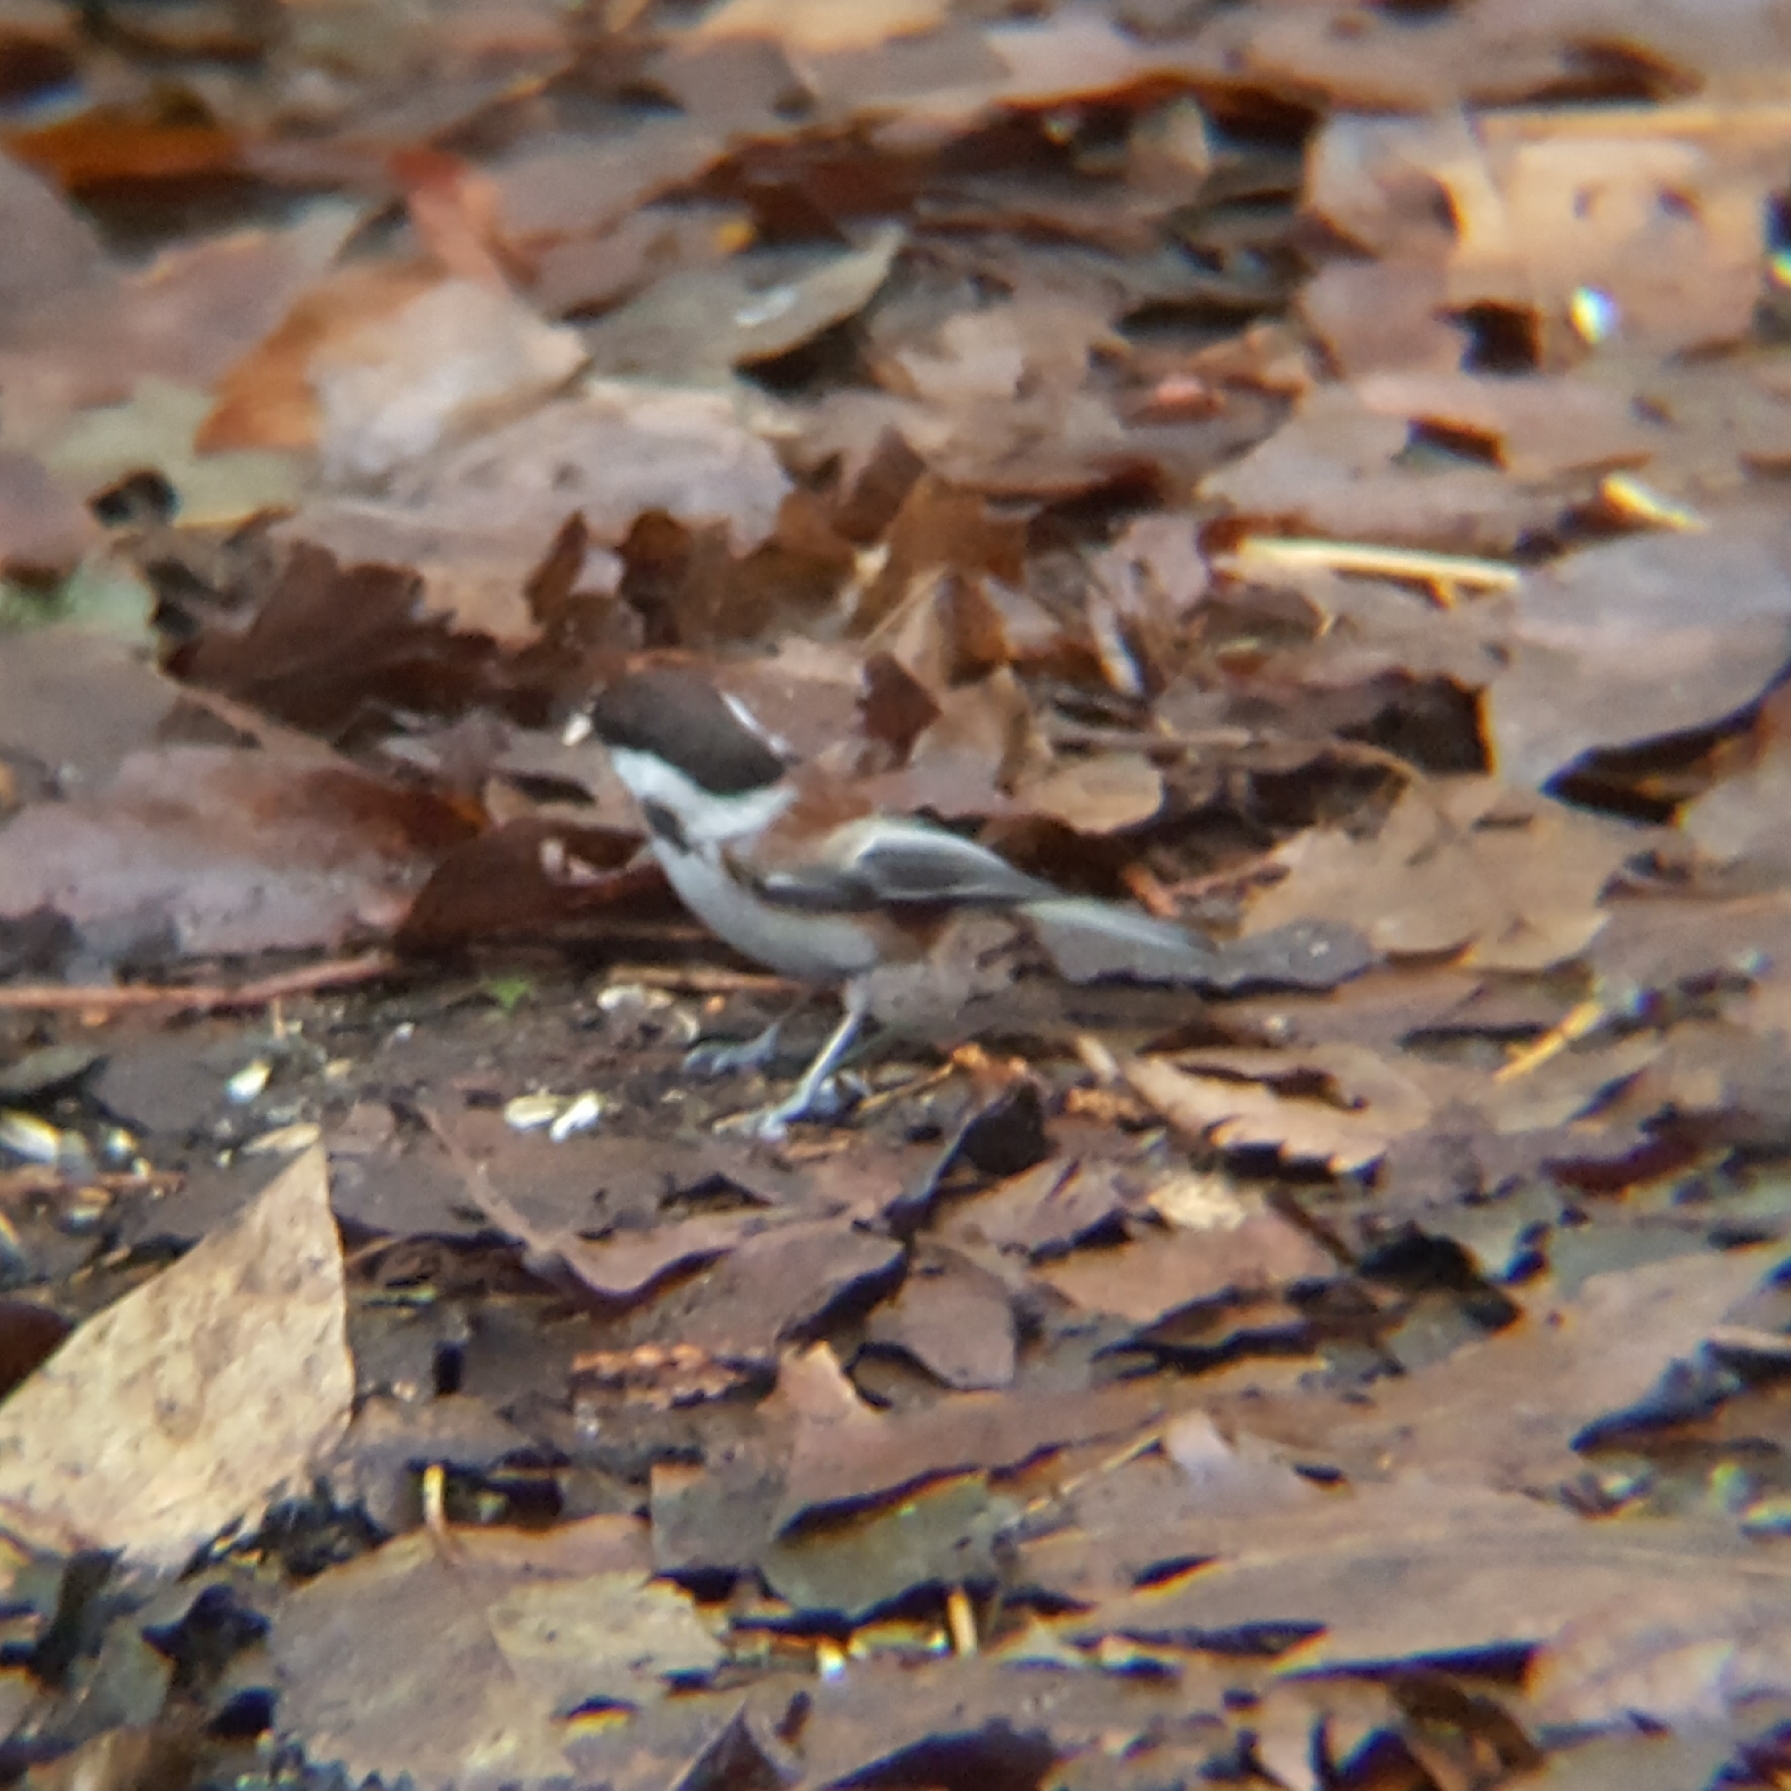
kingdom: Animalia
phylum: Chordata
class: Aves
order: Passeriformes
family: Paridae
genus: Poecile
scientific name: Poecile rufescens
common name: Chestnut-backed chickadee
